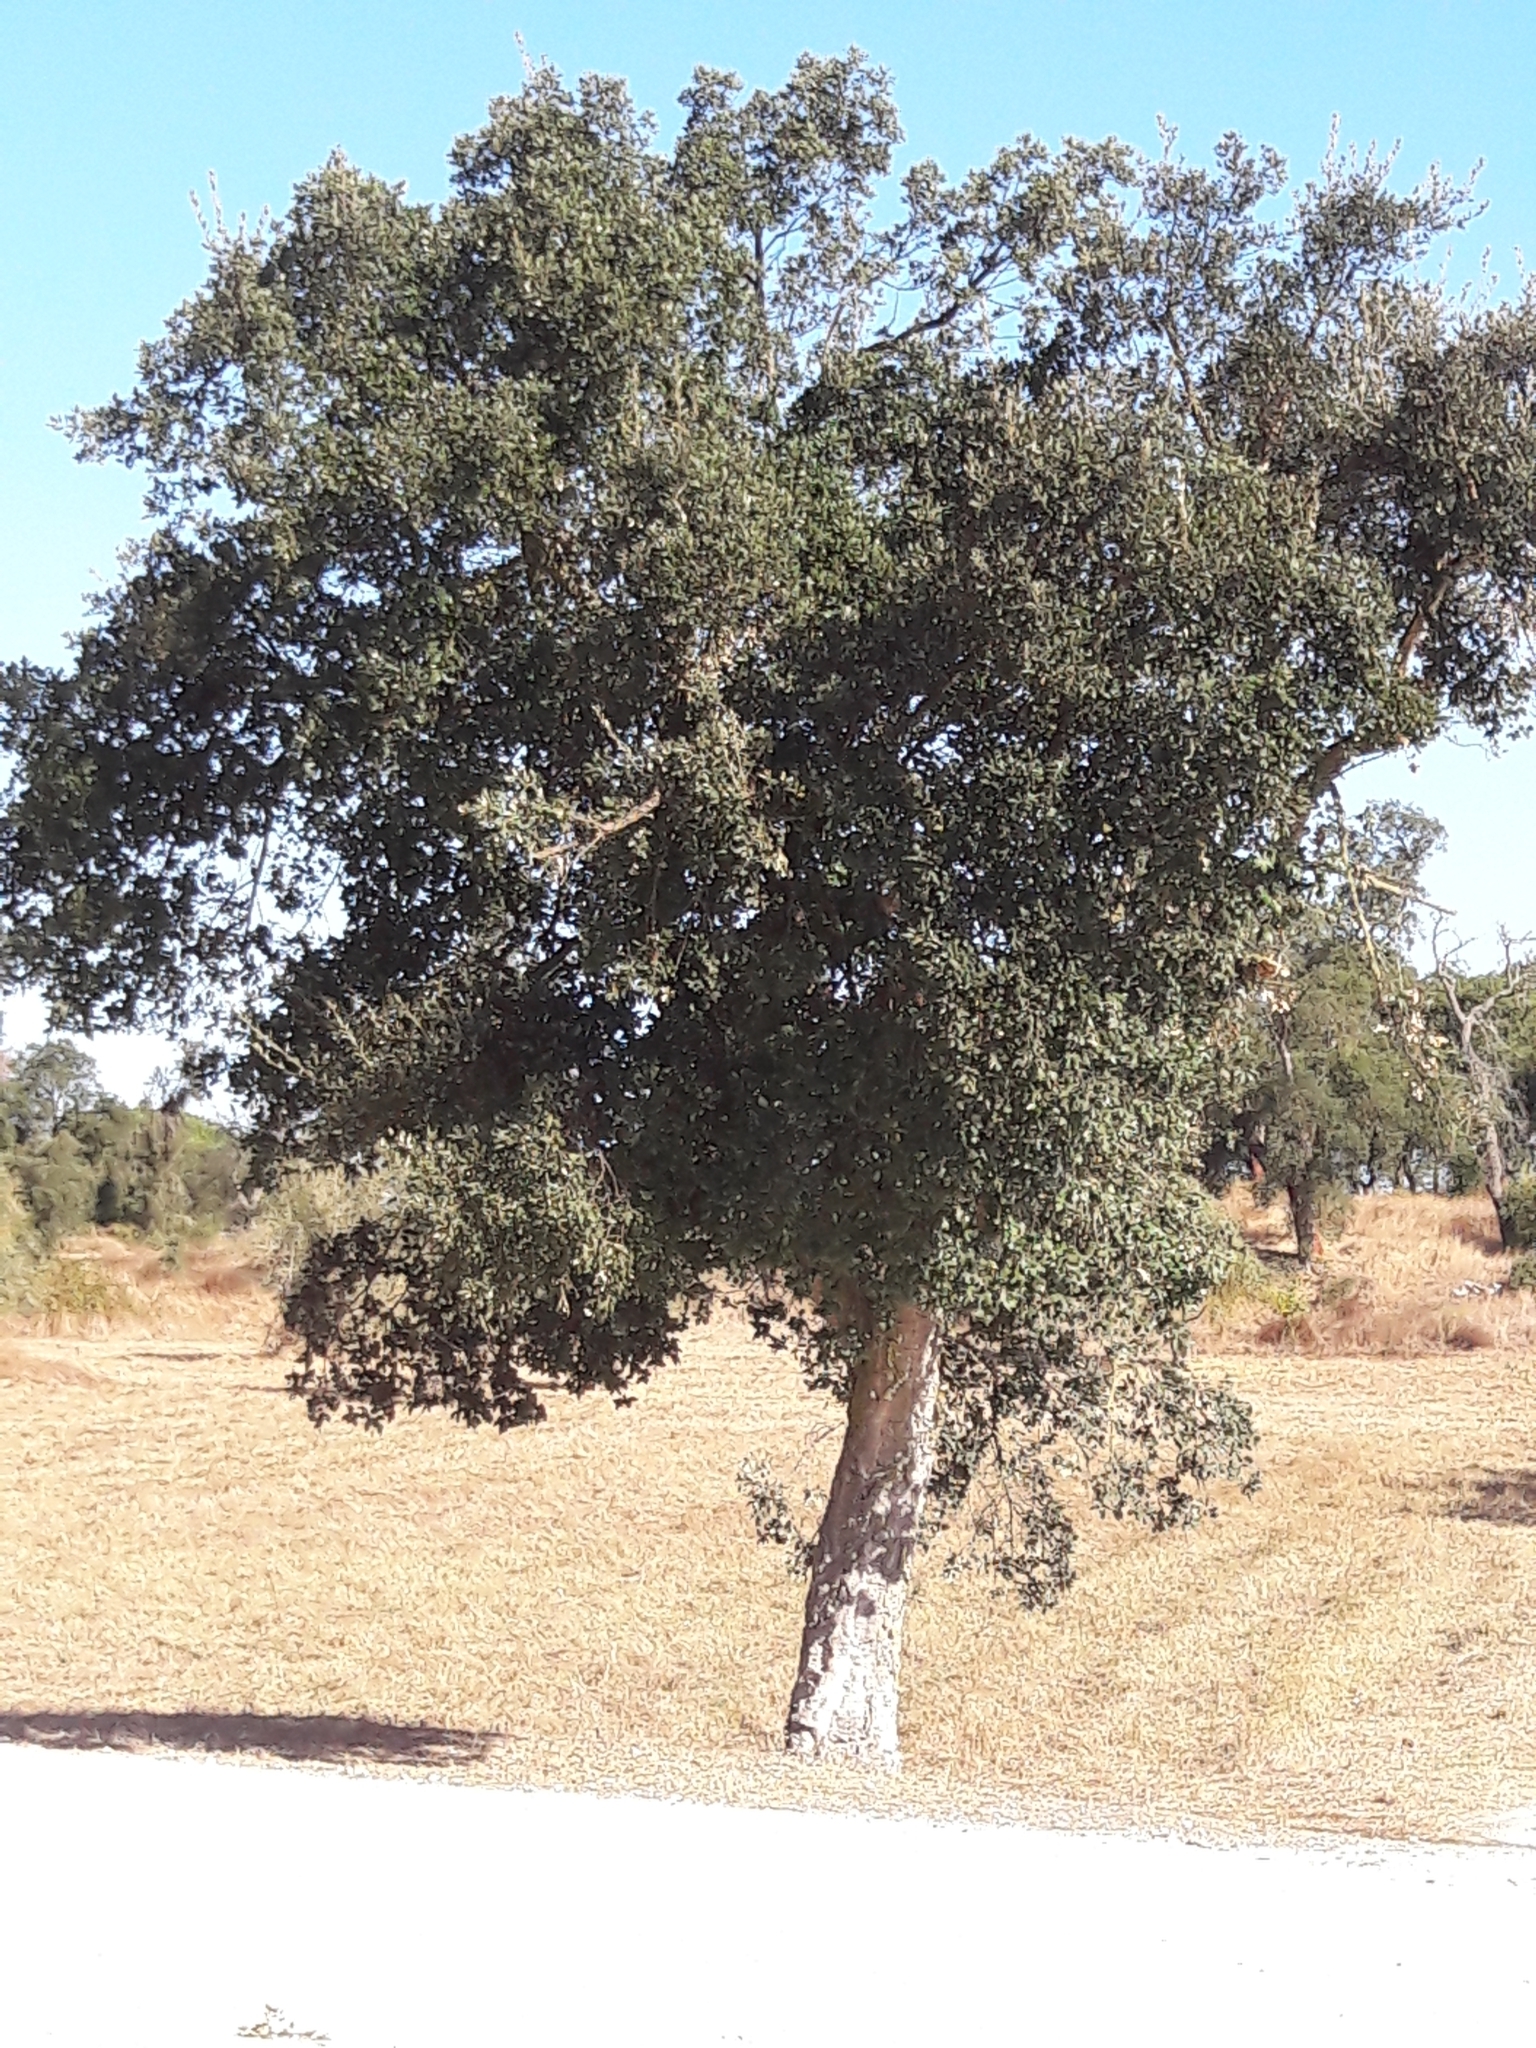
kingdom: Plantae
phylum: Tracheophyta
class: Magnoliopsida
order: Fagales
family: Fagaceae
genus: Quercus
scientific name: Quercus suber
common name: Cork oak
